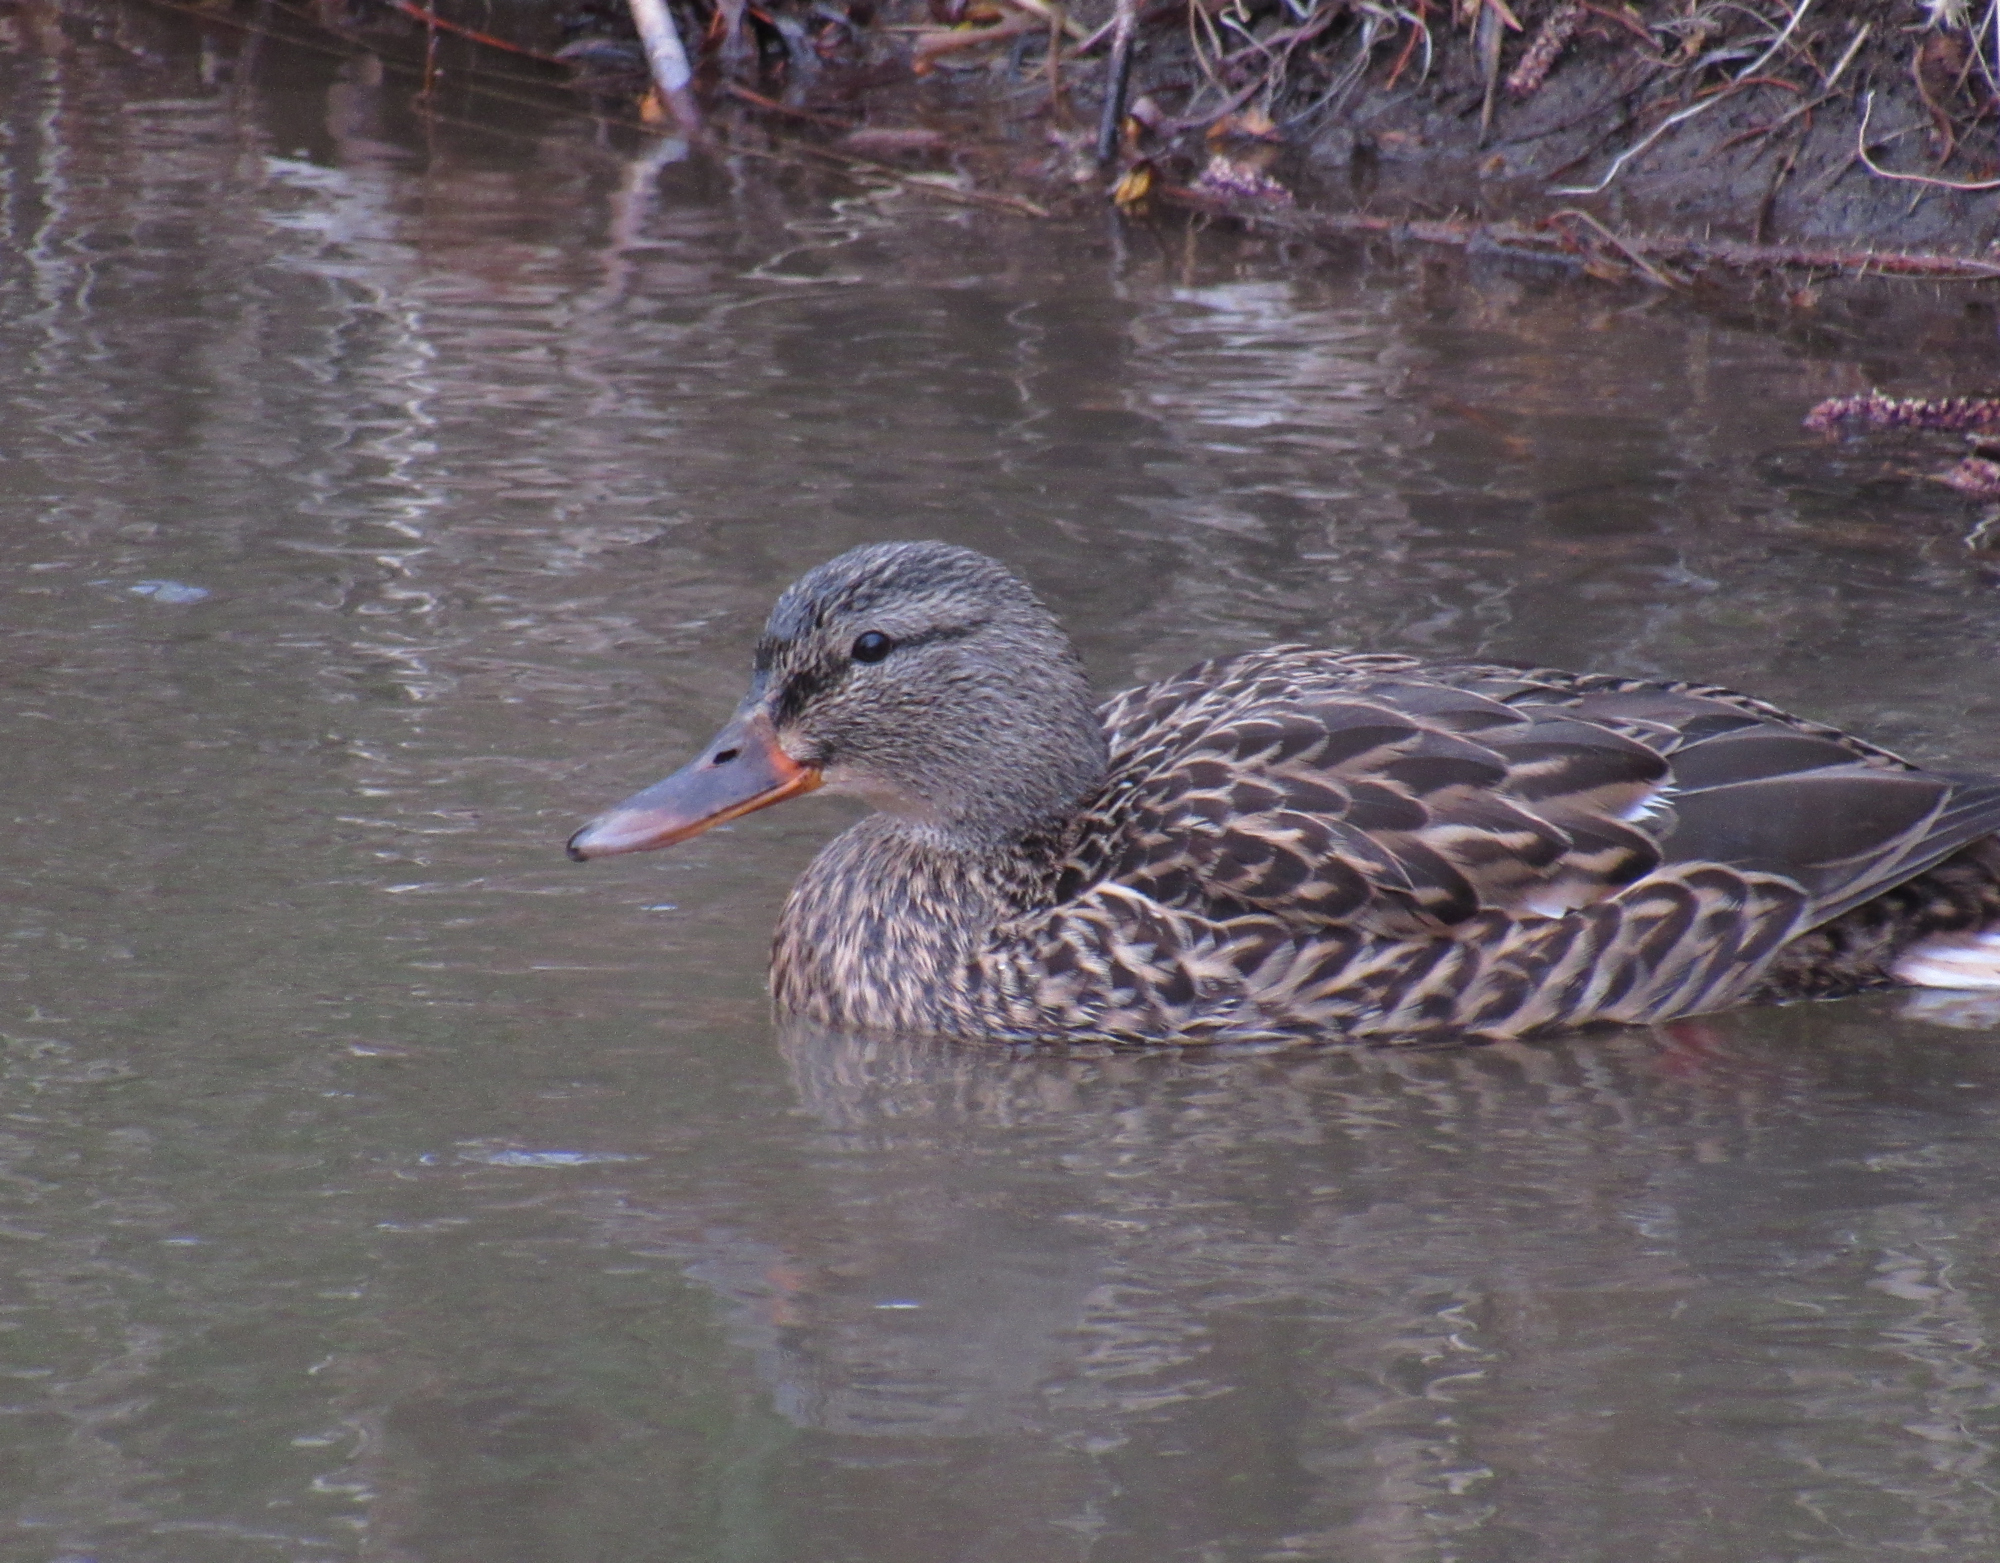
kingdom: Animalia
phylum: Chordata
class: Aves
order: Anseriformes
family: Anatidae
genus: Anas
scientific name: Anas platyrhynchos
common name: Mallard
